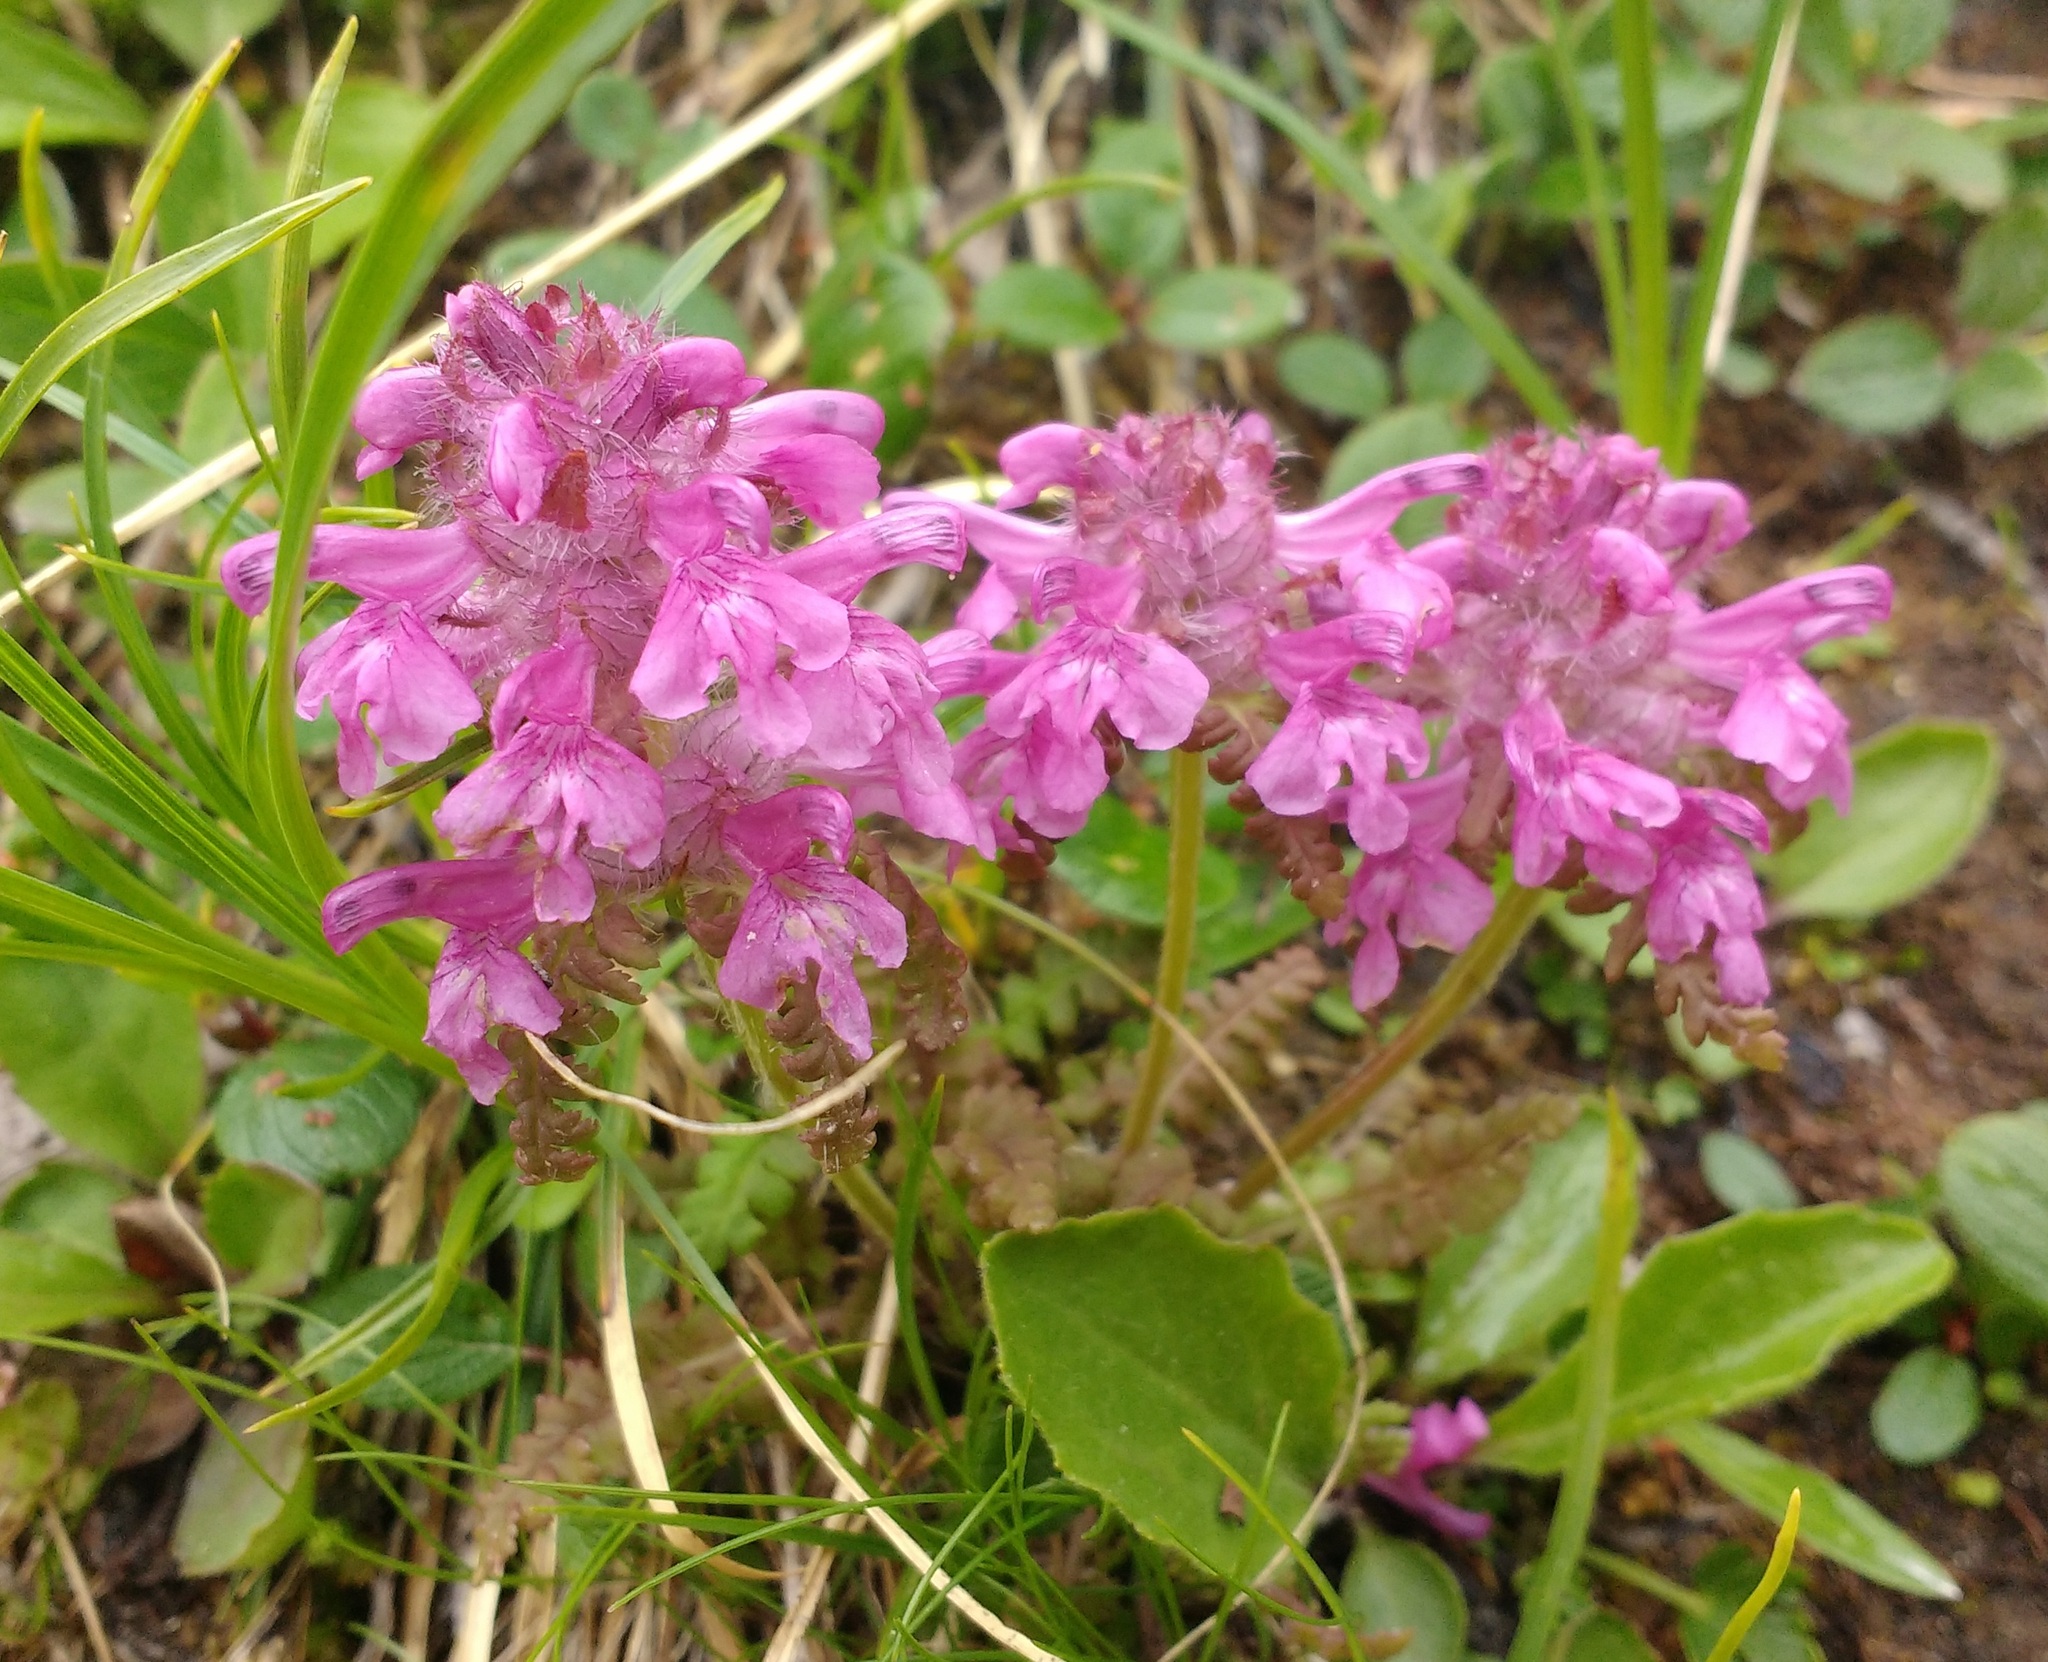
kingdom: Plantae
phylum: Tracheophyta
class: Magnoliopsida
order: Lamiales
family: Orobanchaceae
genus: Pedicularis
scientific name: Pedicularis verticillata
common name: Whorled lousewort
